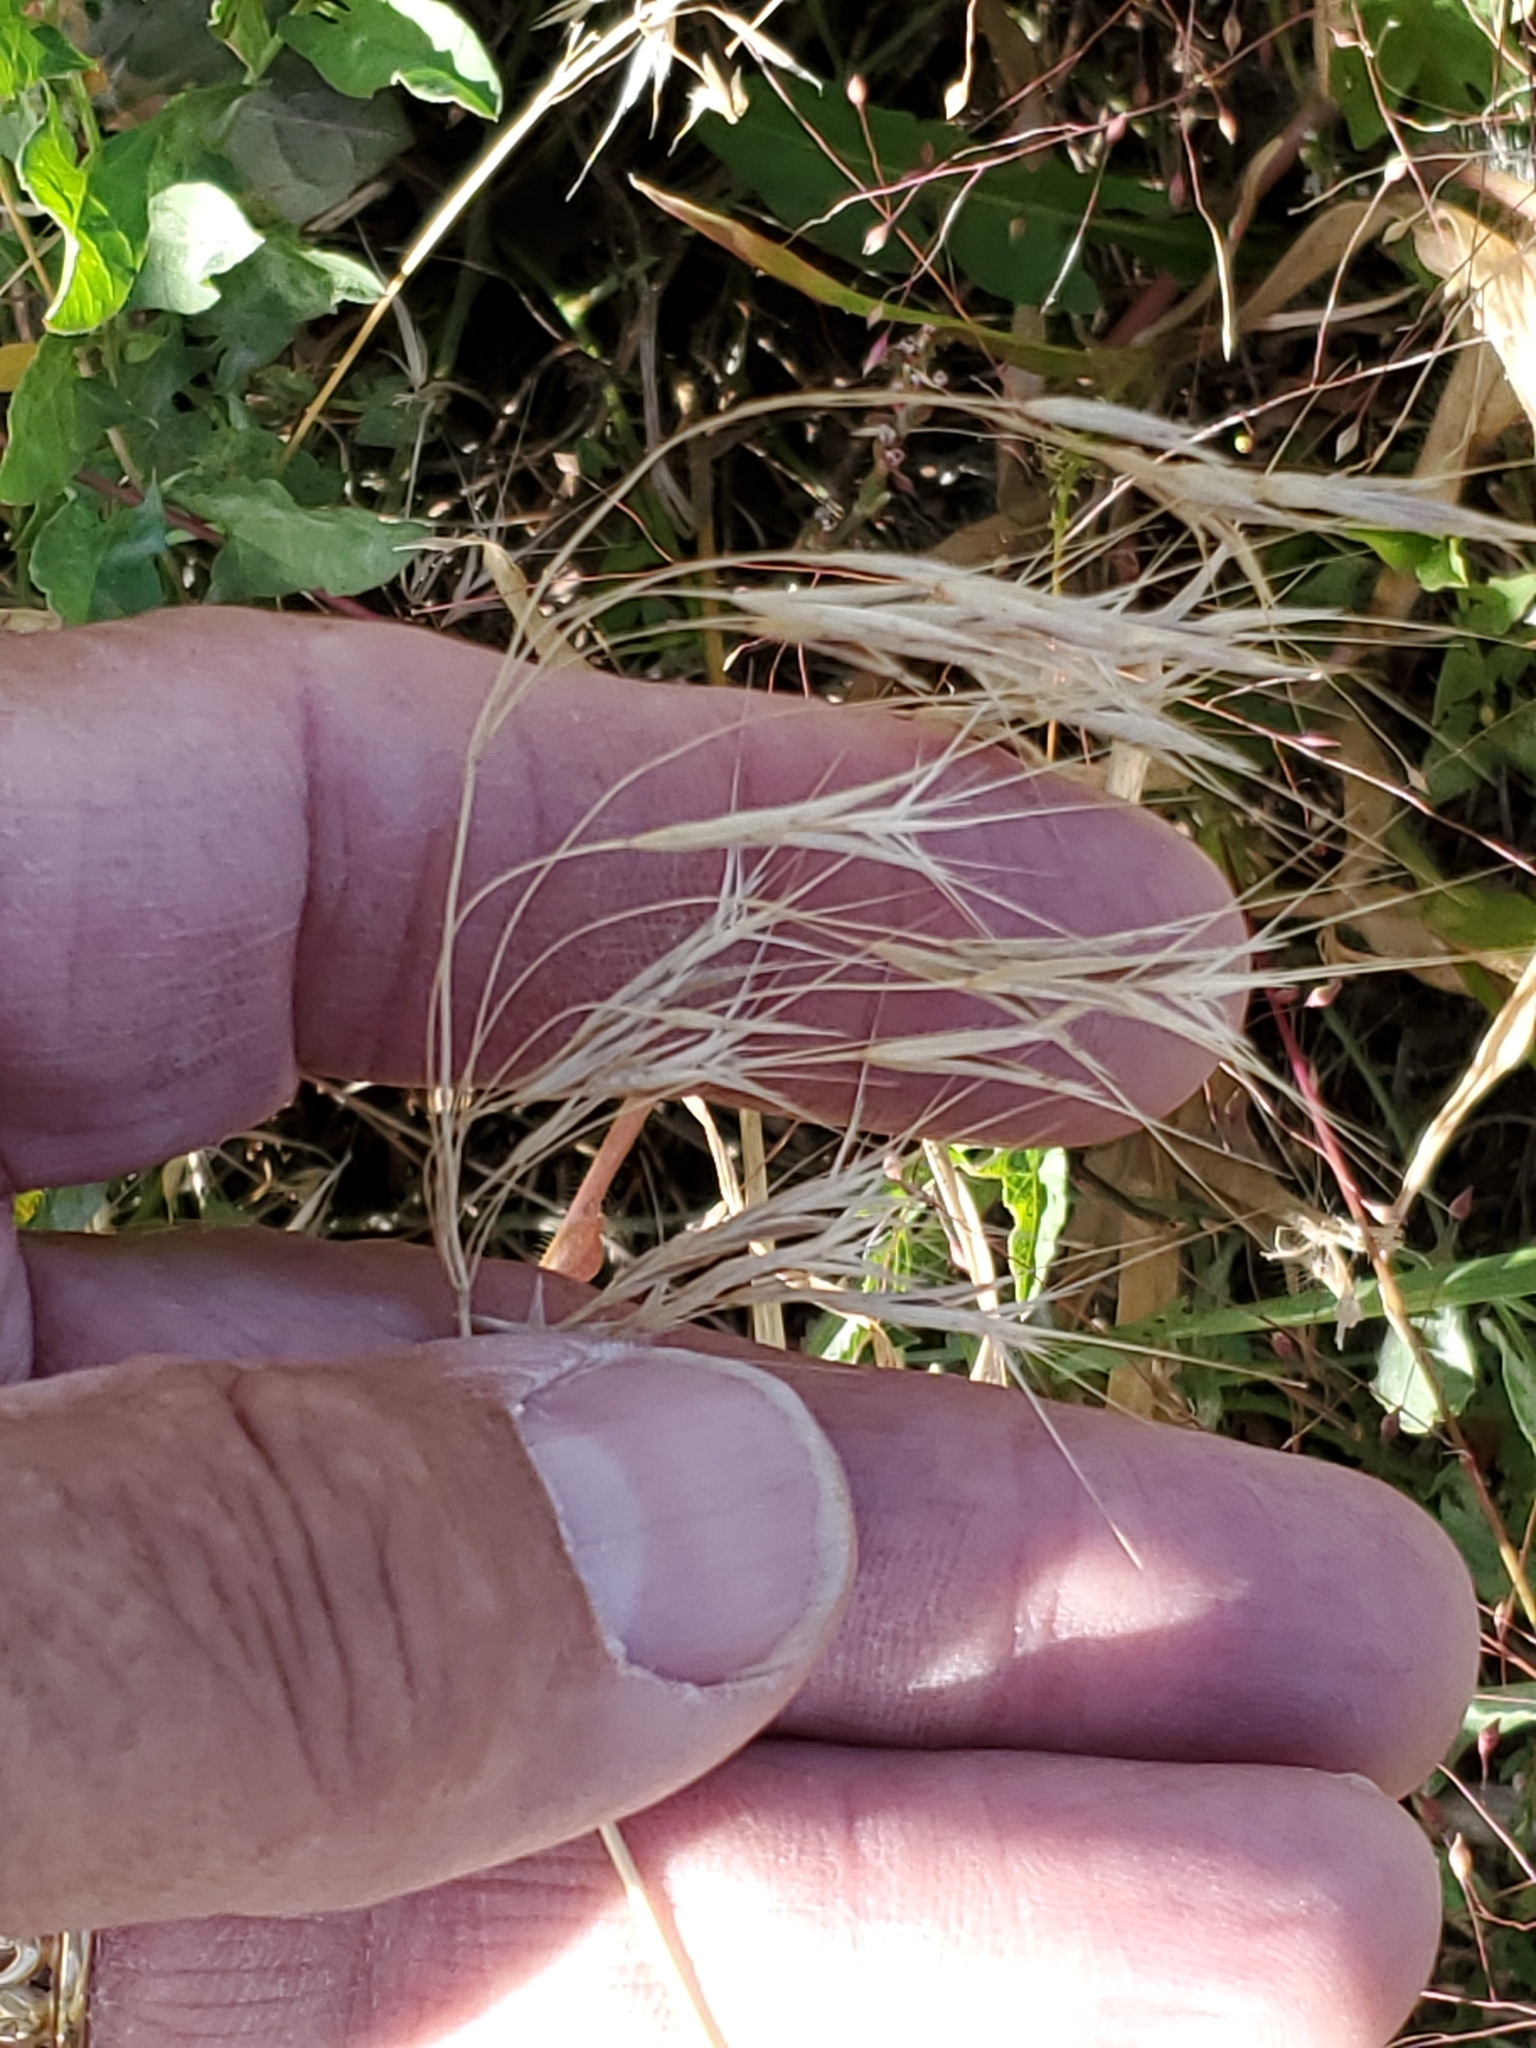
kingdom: Plantae
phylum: Tracheophyta
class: Liliopsida
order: Poales
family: Poaceae
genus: Bromus
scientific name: Bromus tectorum
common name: Cheatgrass
